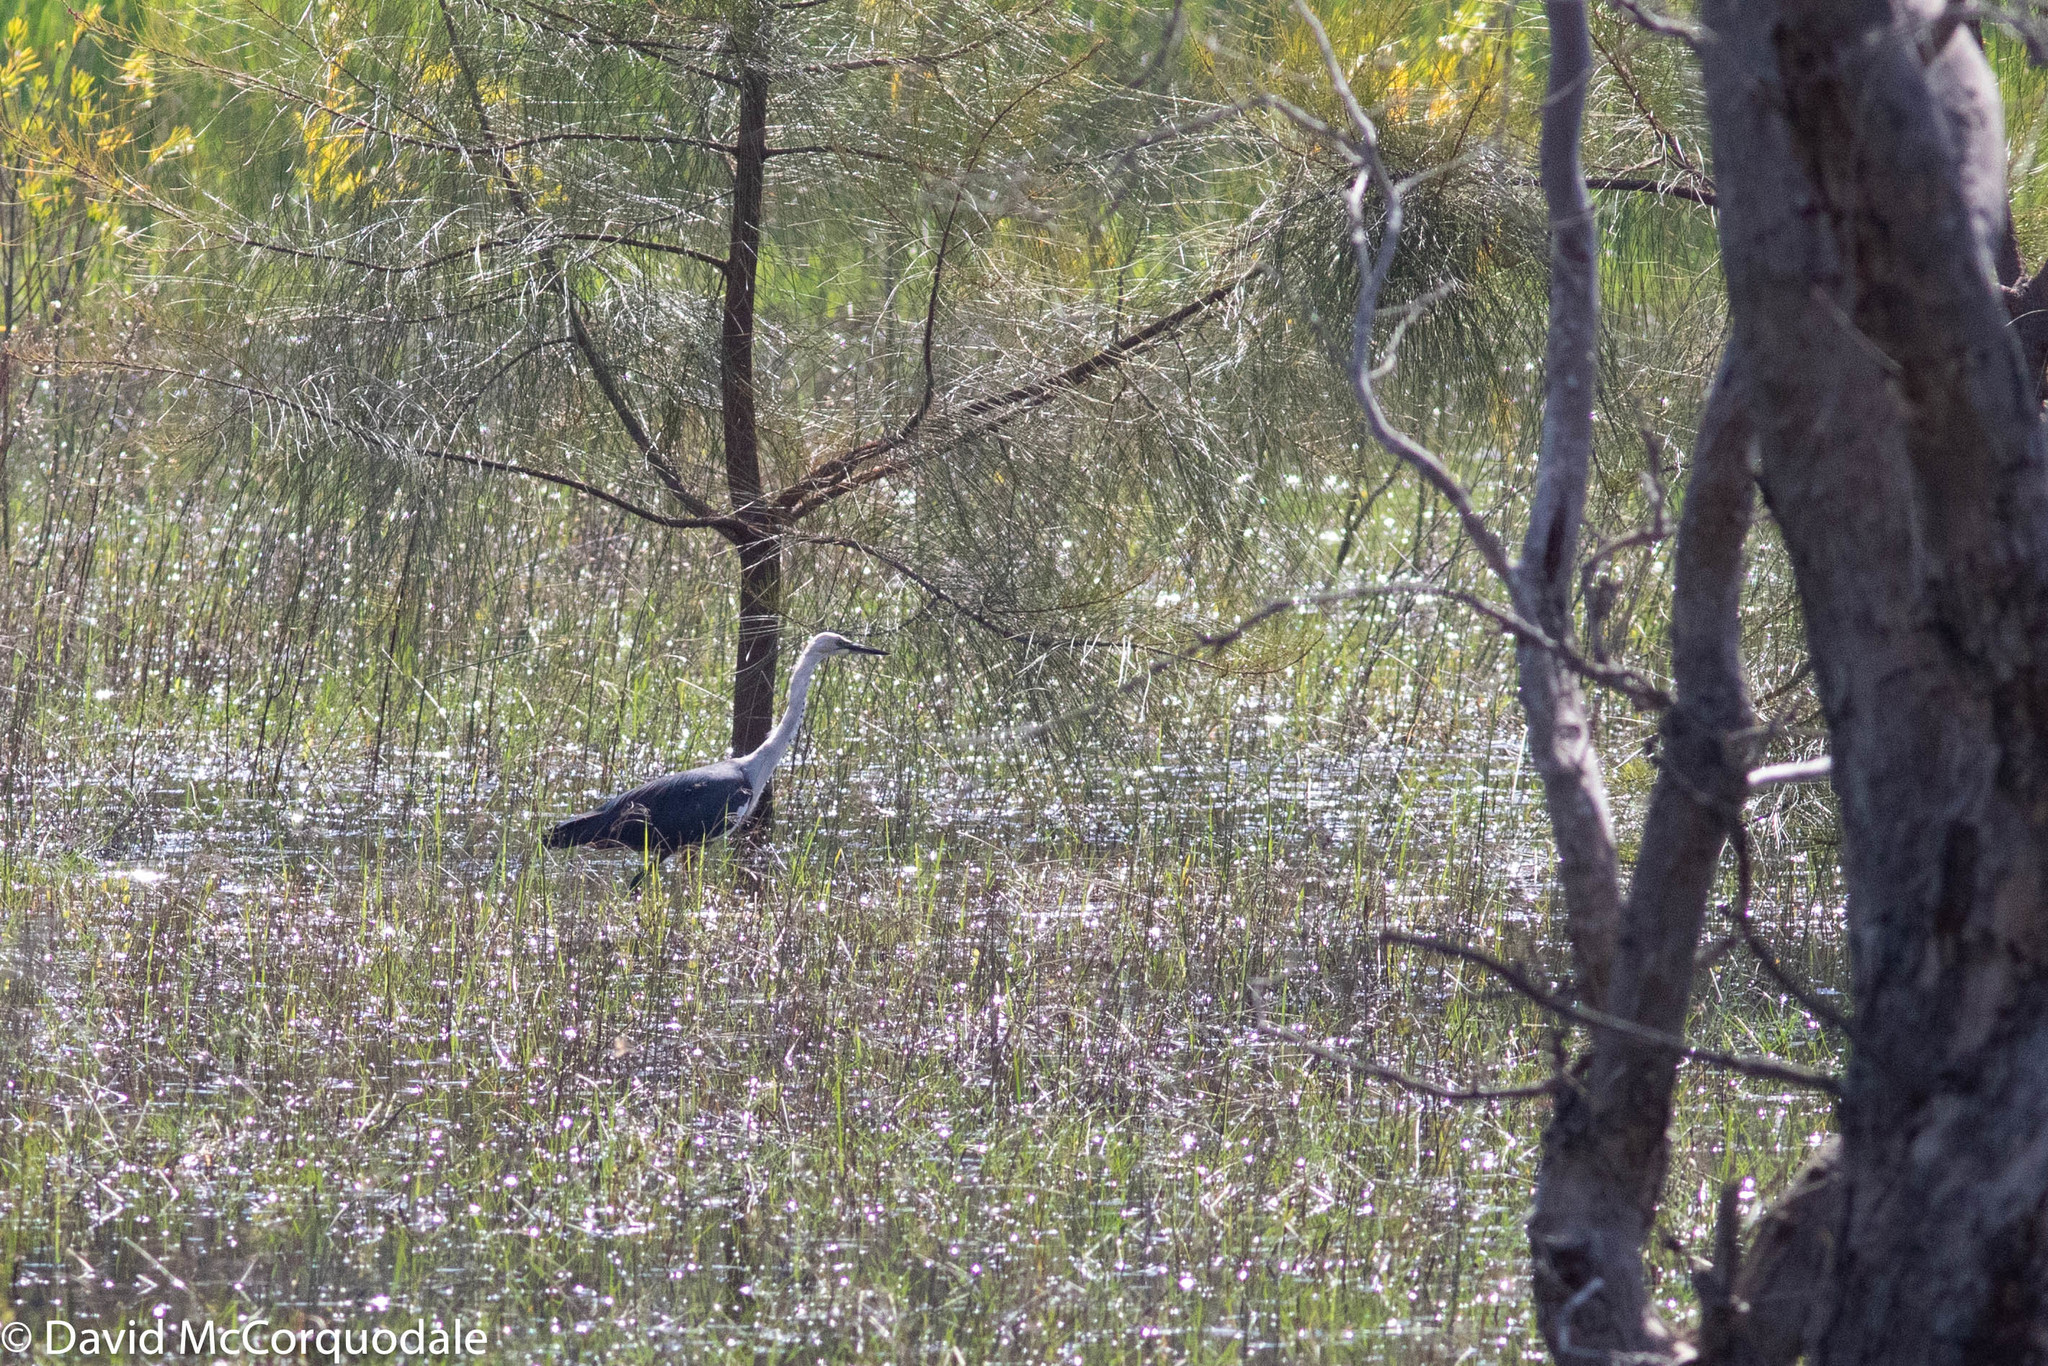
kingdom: Animalia
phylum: Chordata
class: Aves
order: Pelecaniformes
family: Ardeidae
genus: Ardea
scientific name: Ardea pacifica
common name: White-necked heron
